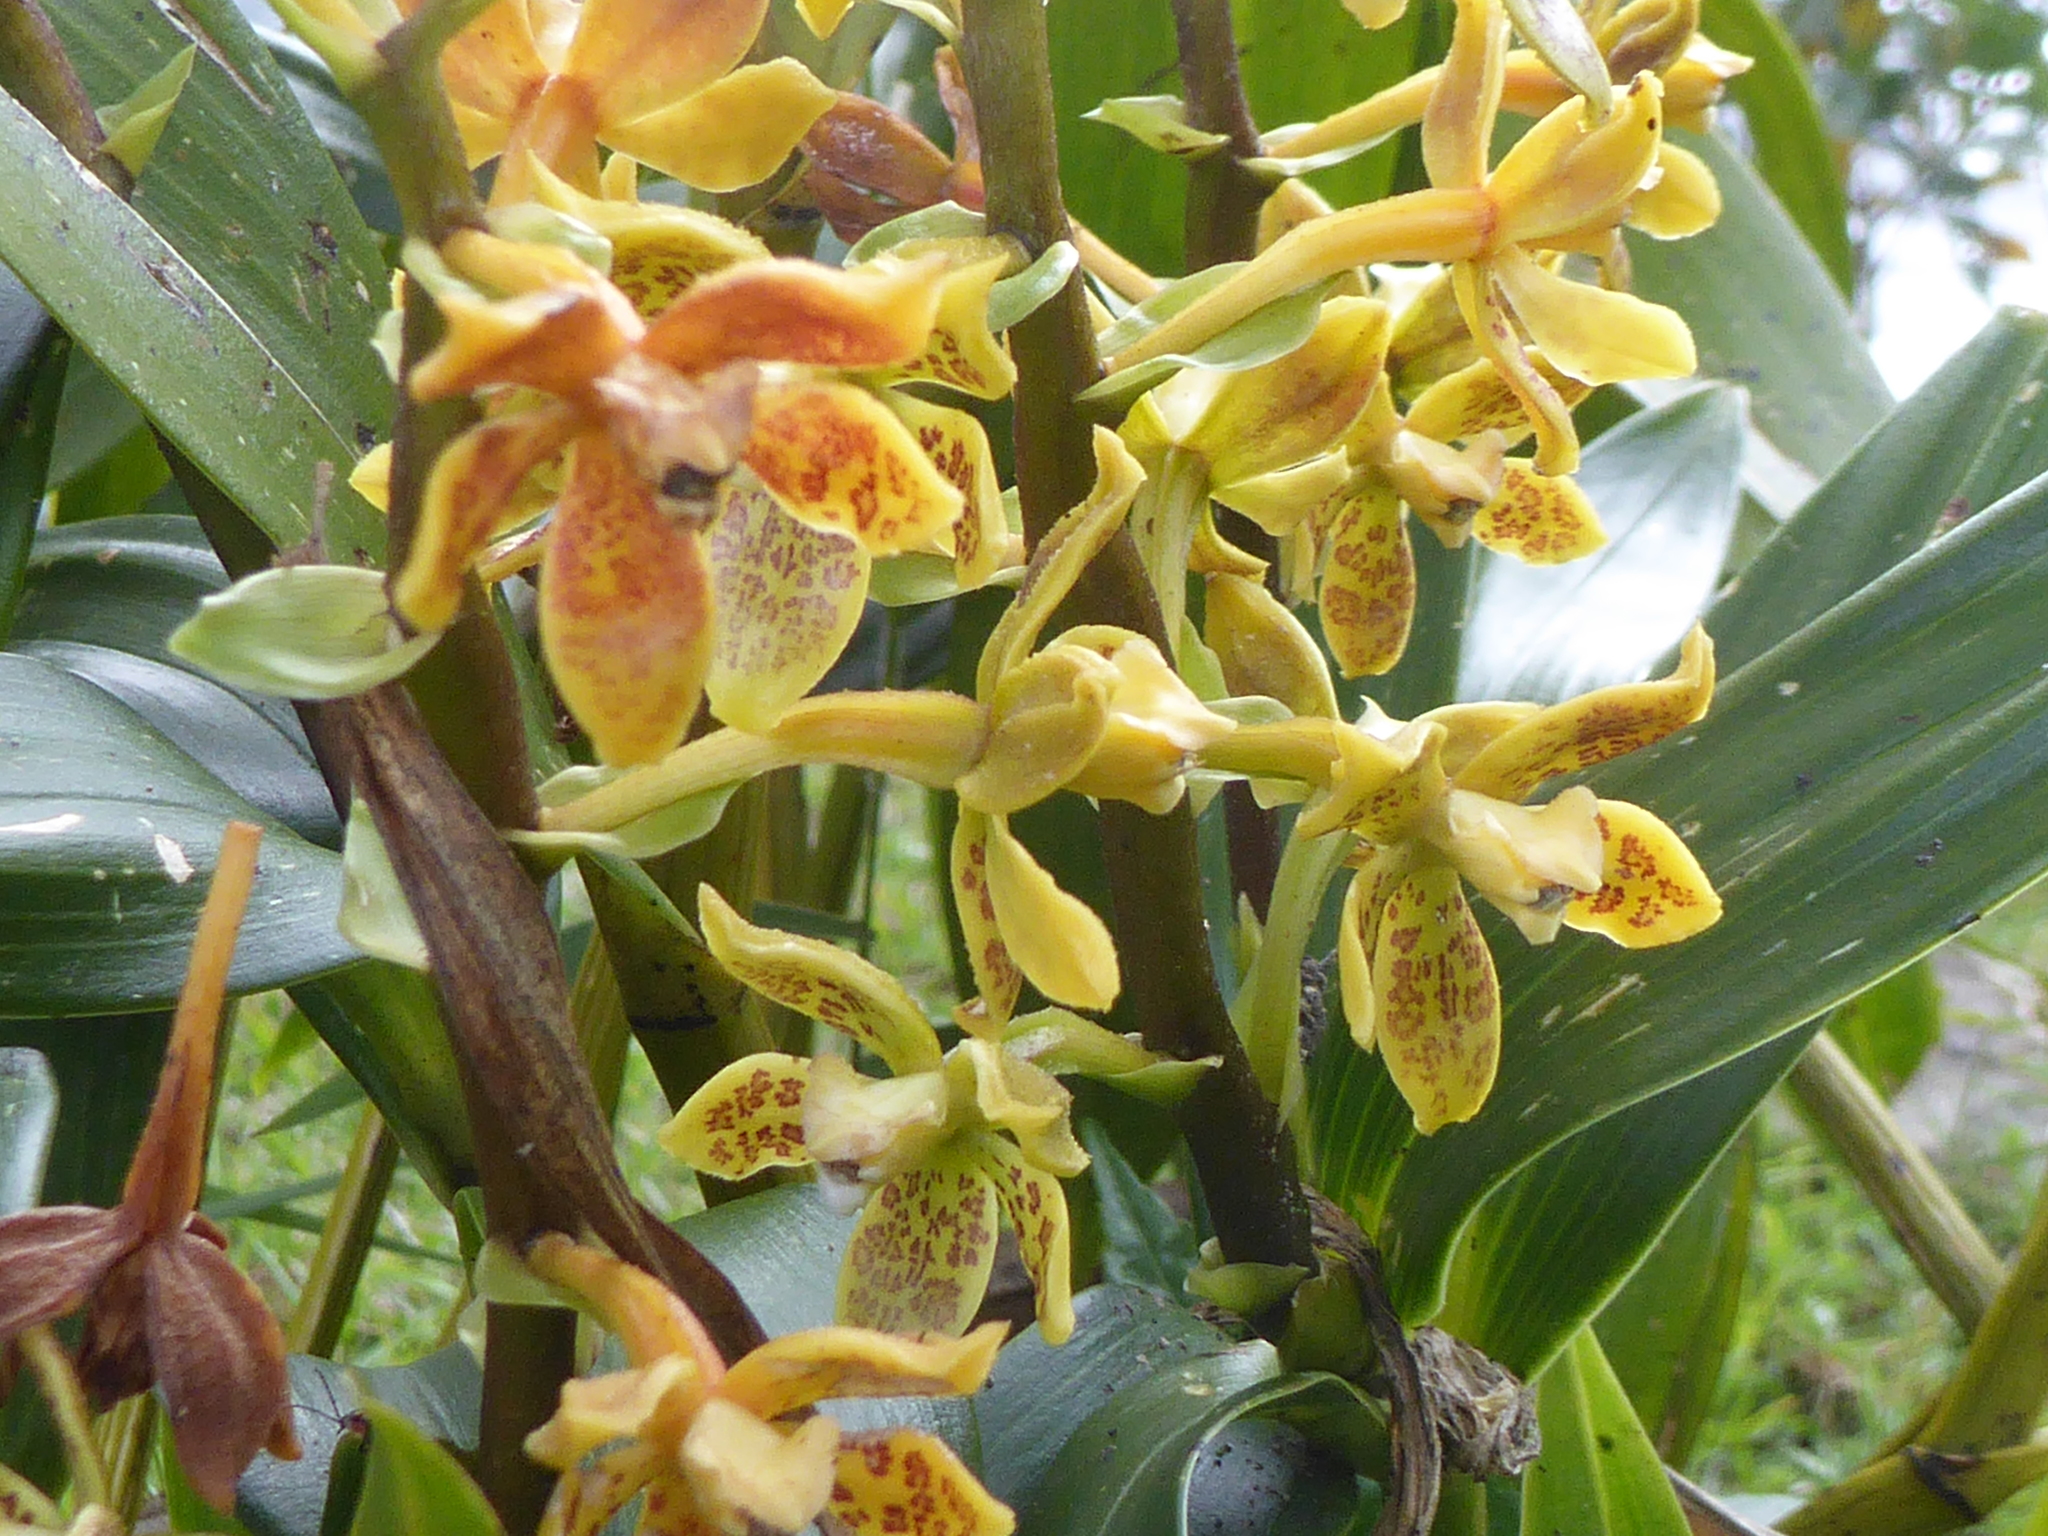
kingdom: Plantae
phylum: Tracheophyta
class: Liliopsida
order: Asparagales
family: Orchidaceae
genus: Prosthechea
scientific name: Prosthechea crassilabia
